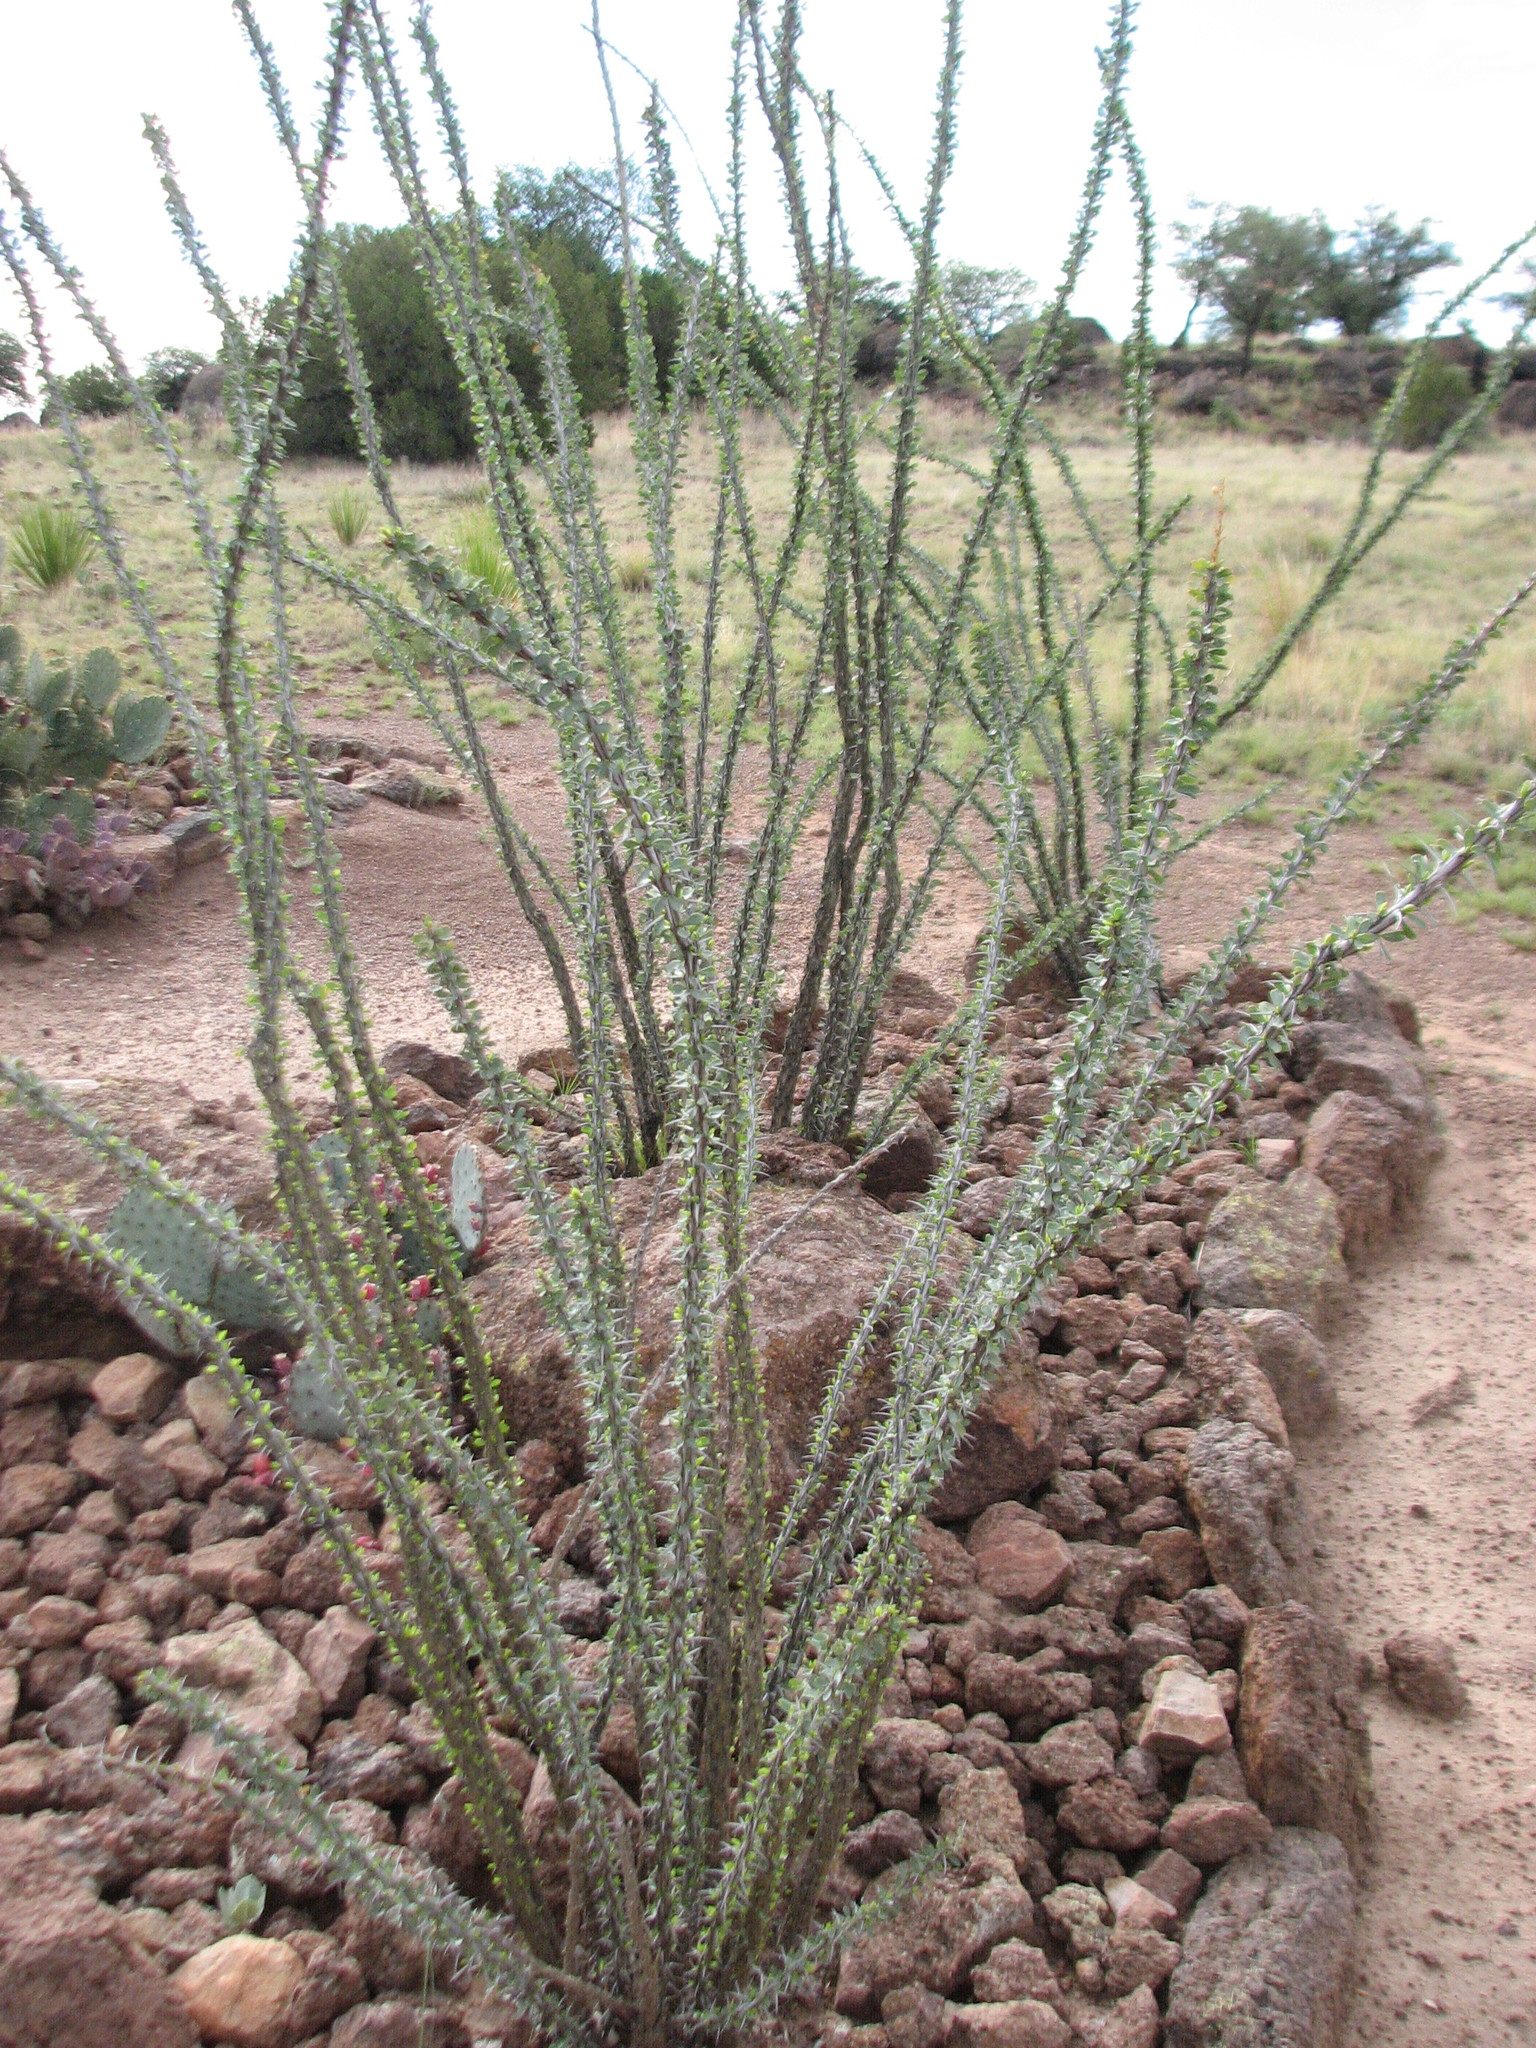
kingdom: Plantae
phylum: Tracheophyta
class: Magnoliopsida
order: Ericales
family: Fouquieriaceae
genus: Fouquieria
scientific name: Fouquieria splendens
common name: Vine-cactus
